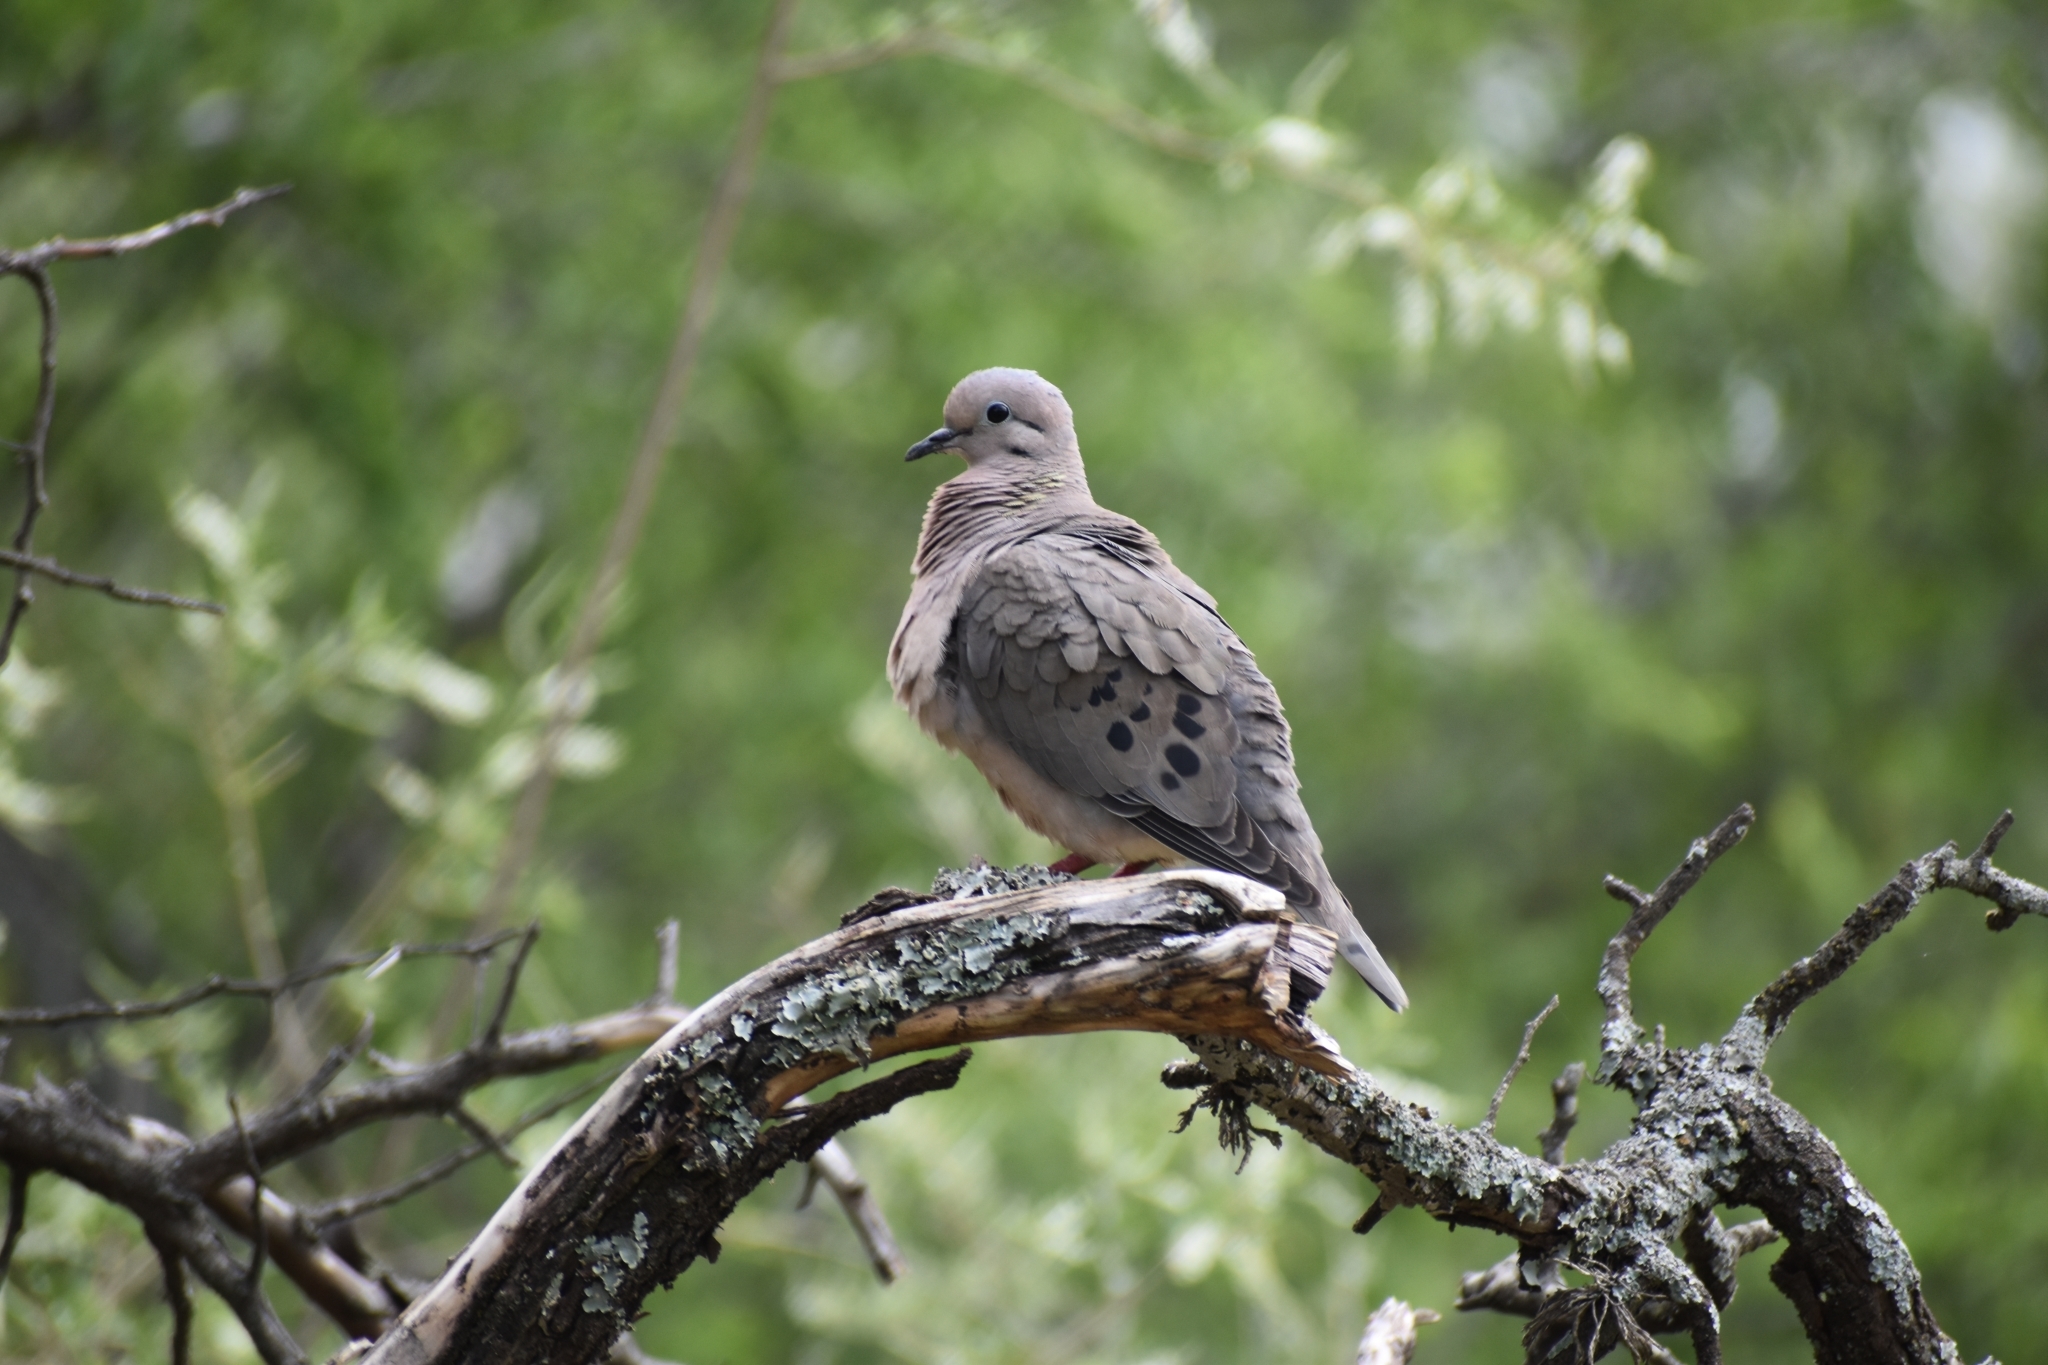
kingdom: Animalia
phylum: Chordata
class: Aves
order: Columbiformes
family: Columbidae
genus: Zenaida
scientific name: Zenaida auriculata
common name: Eared dove
